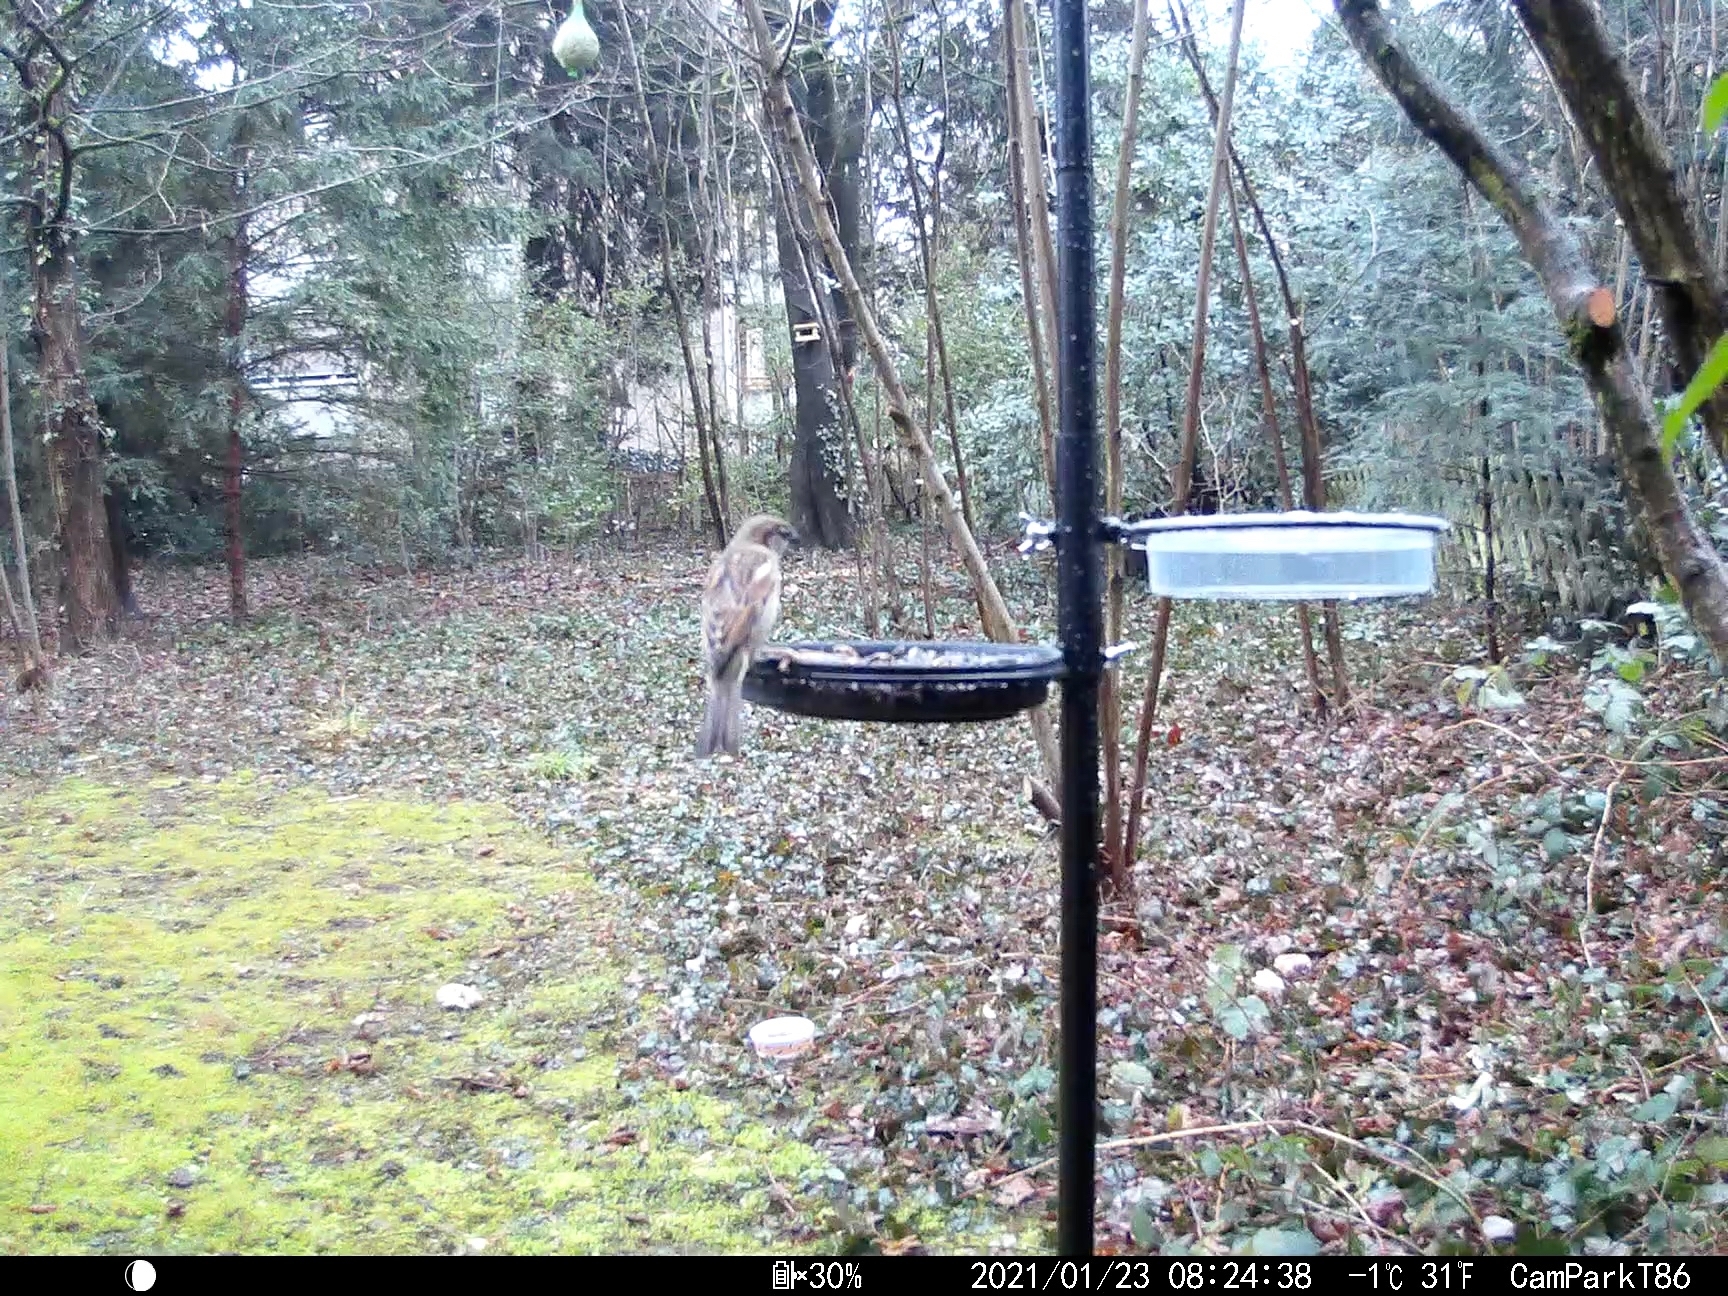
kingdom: Animalia
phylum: Chordata
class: Aves
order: Passeriformes
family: Passeridae
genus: Passer
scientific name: Passer domesticus
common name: House sparrow
